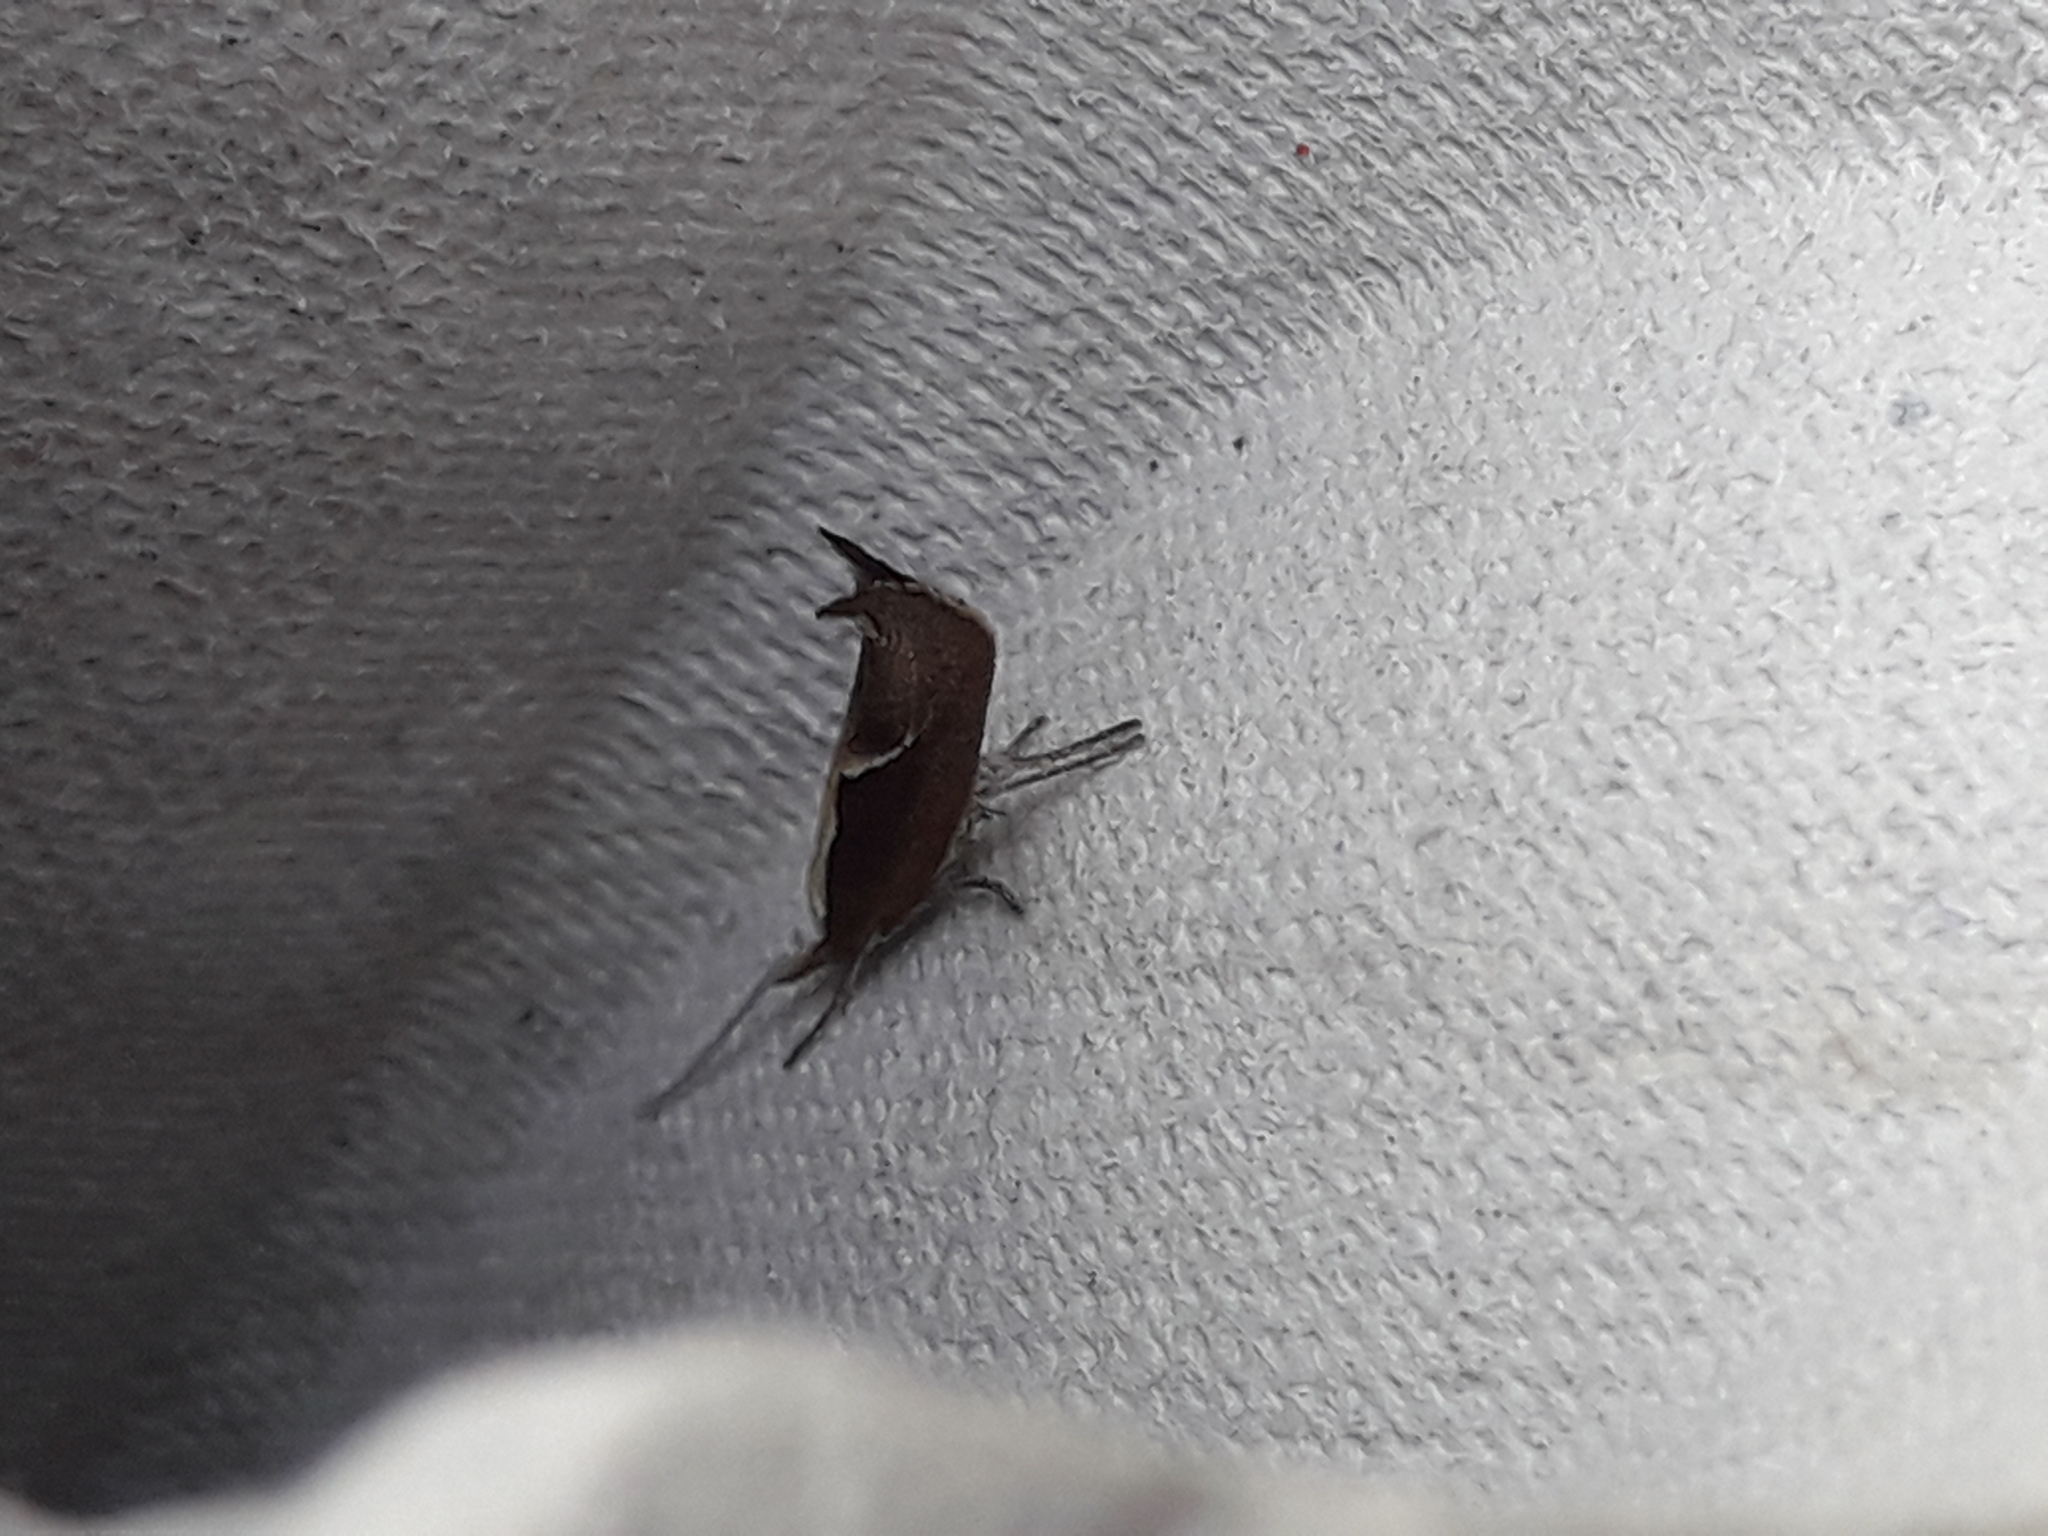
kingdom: Animalia
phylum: Arthropoda
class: Insecta
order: Lepidoptera
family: Ypsolophidae
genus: Ypsolopha
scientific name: Ypsolopha dentella
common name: Honeysuckle moth
